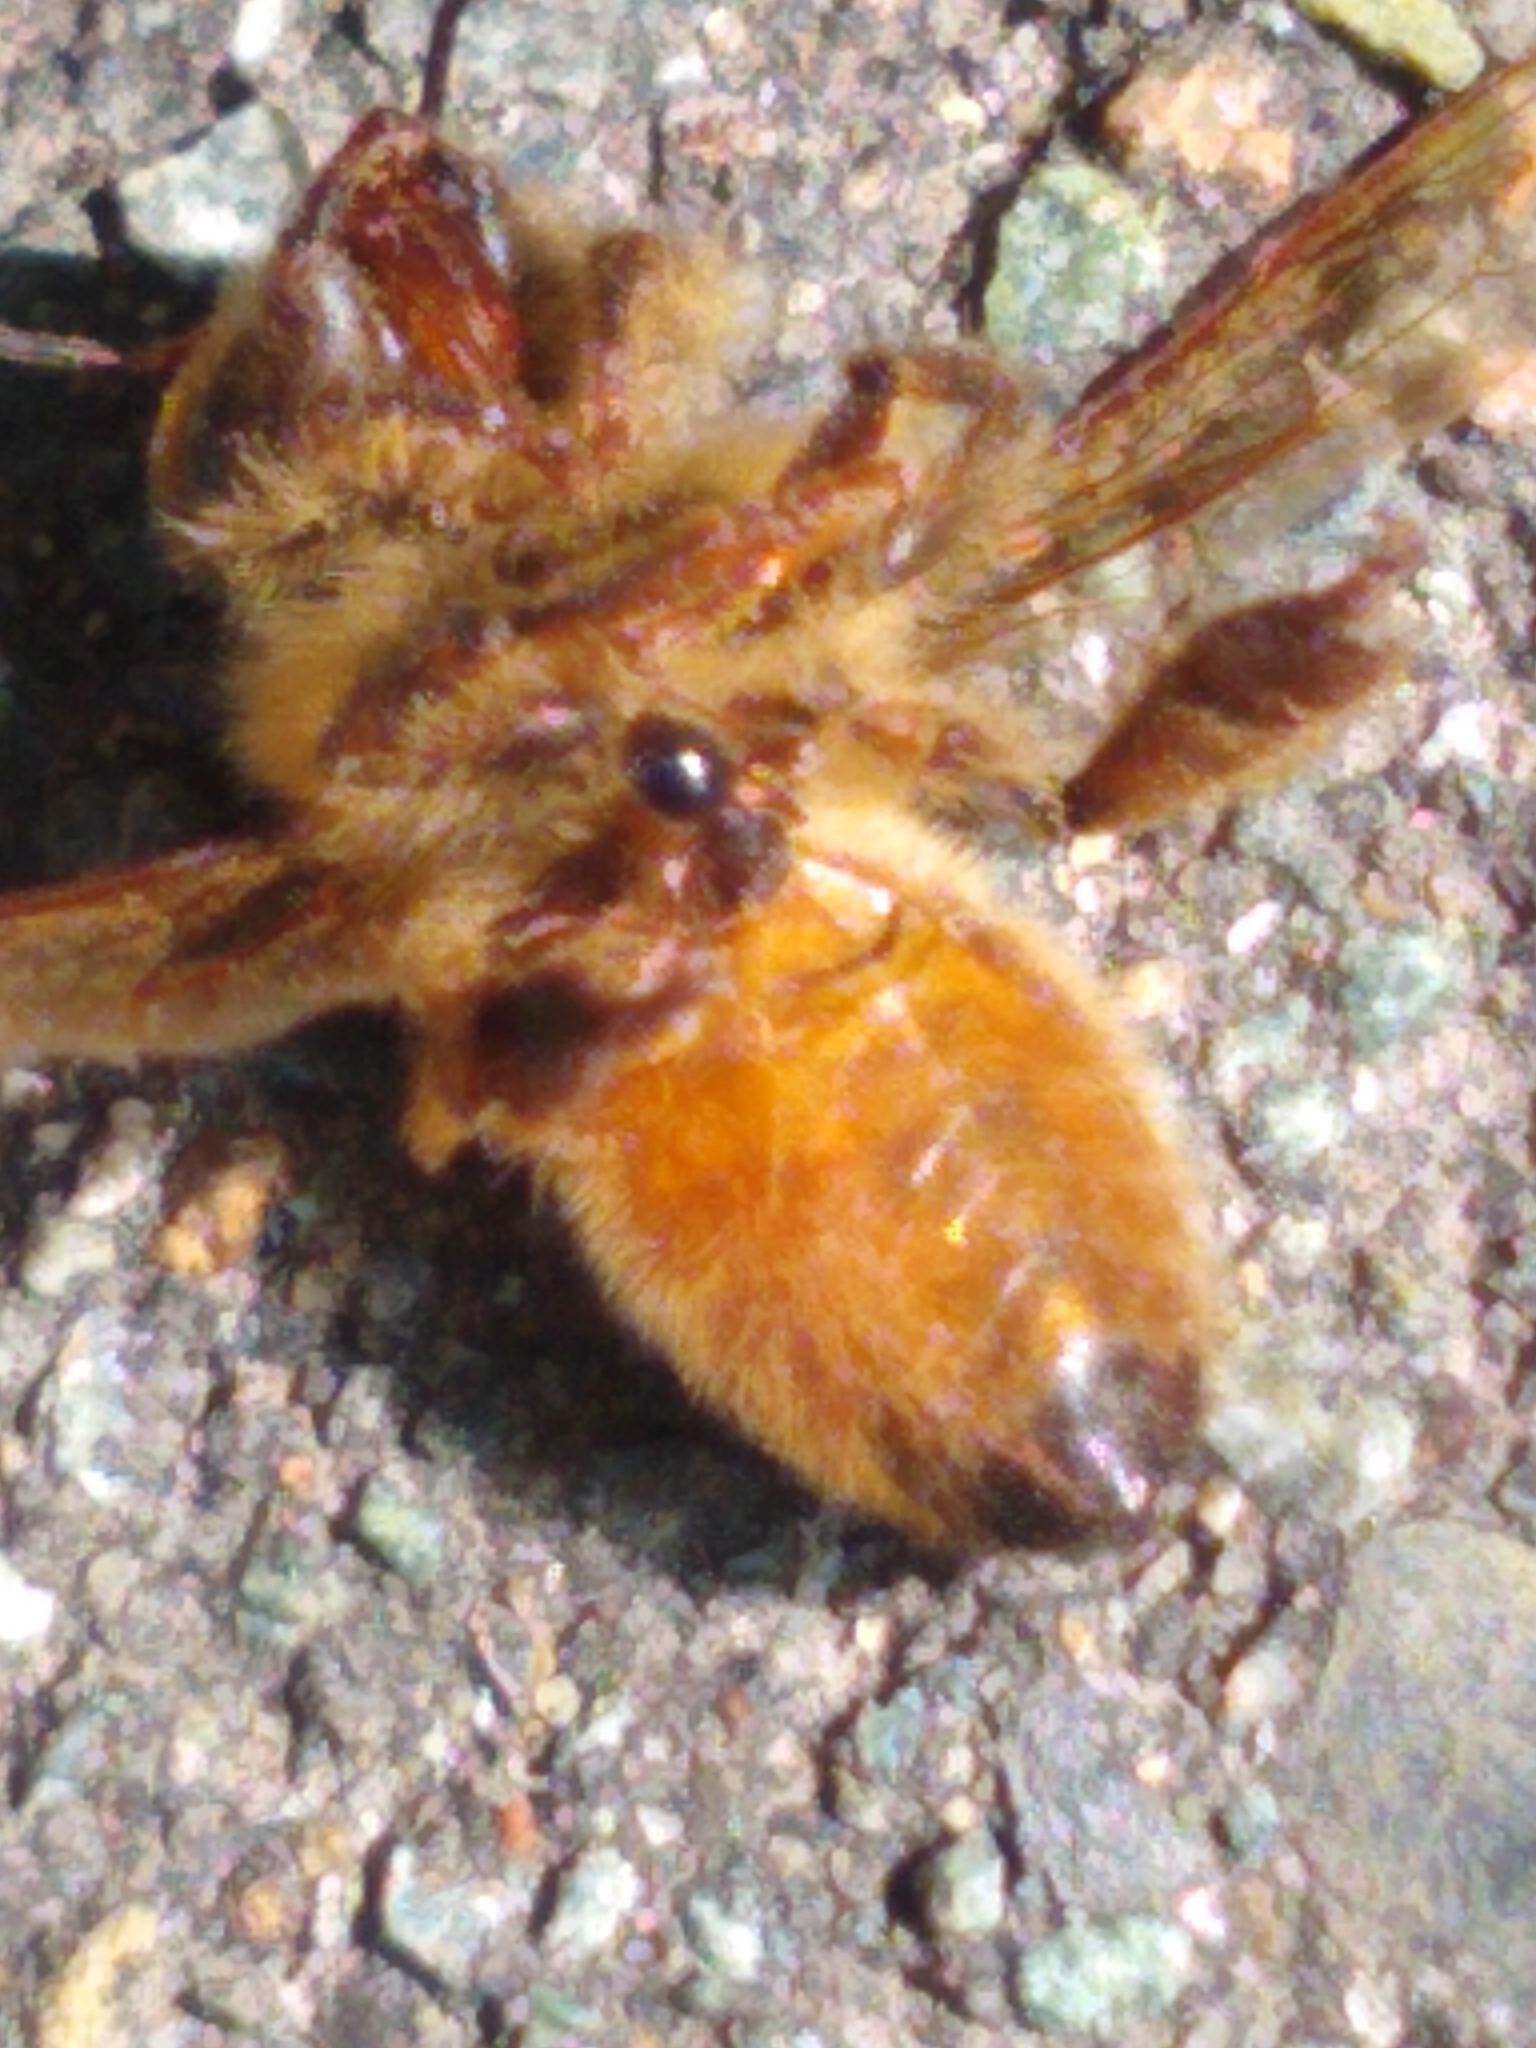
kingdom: Animalia
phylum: Arthropoda
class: Insecta
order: Hymenoptera
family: Apidae
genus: Apis
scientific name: Apis mellifera
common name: Honey bee
